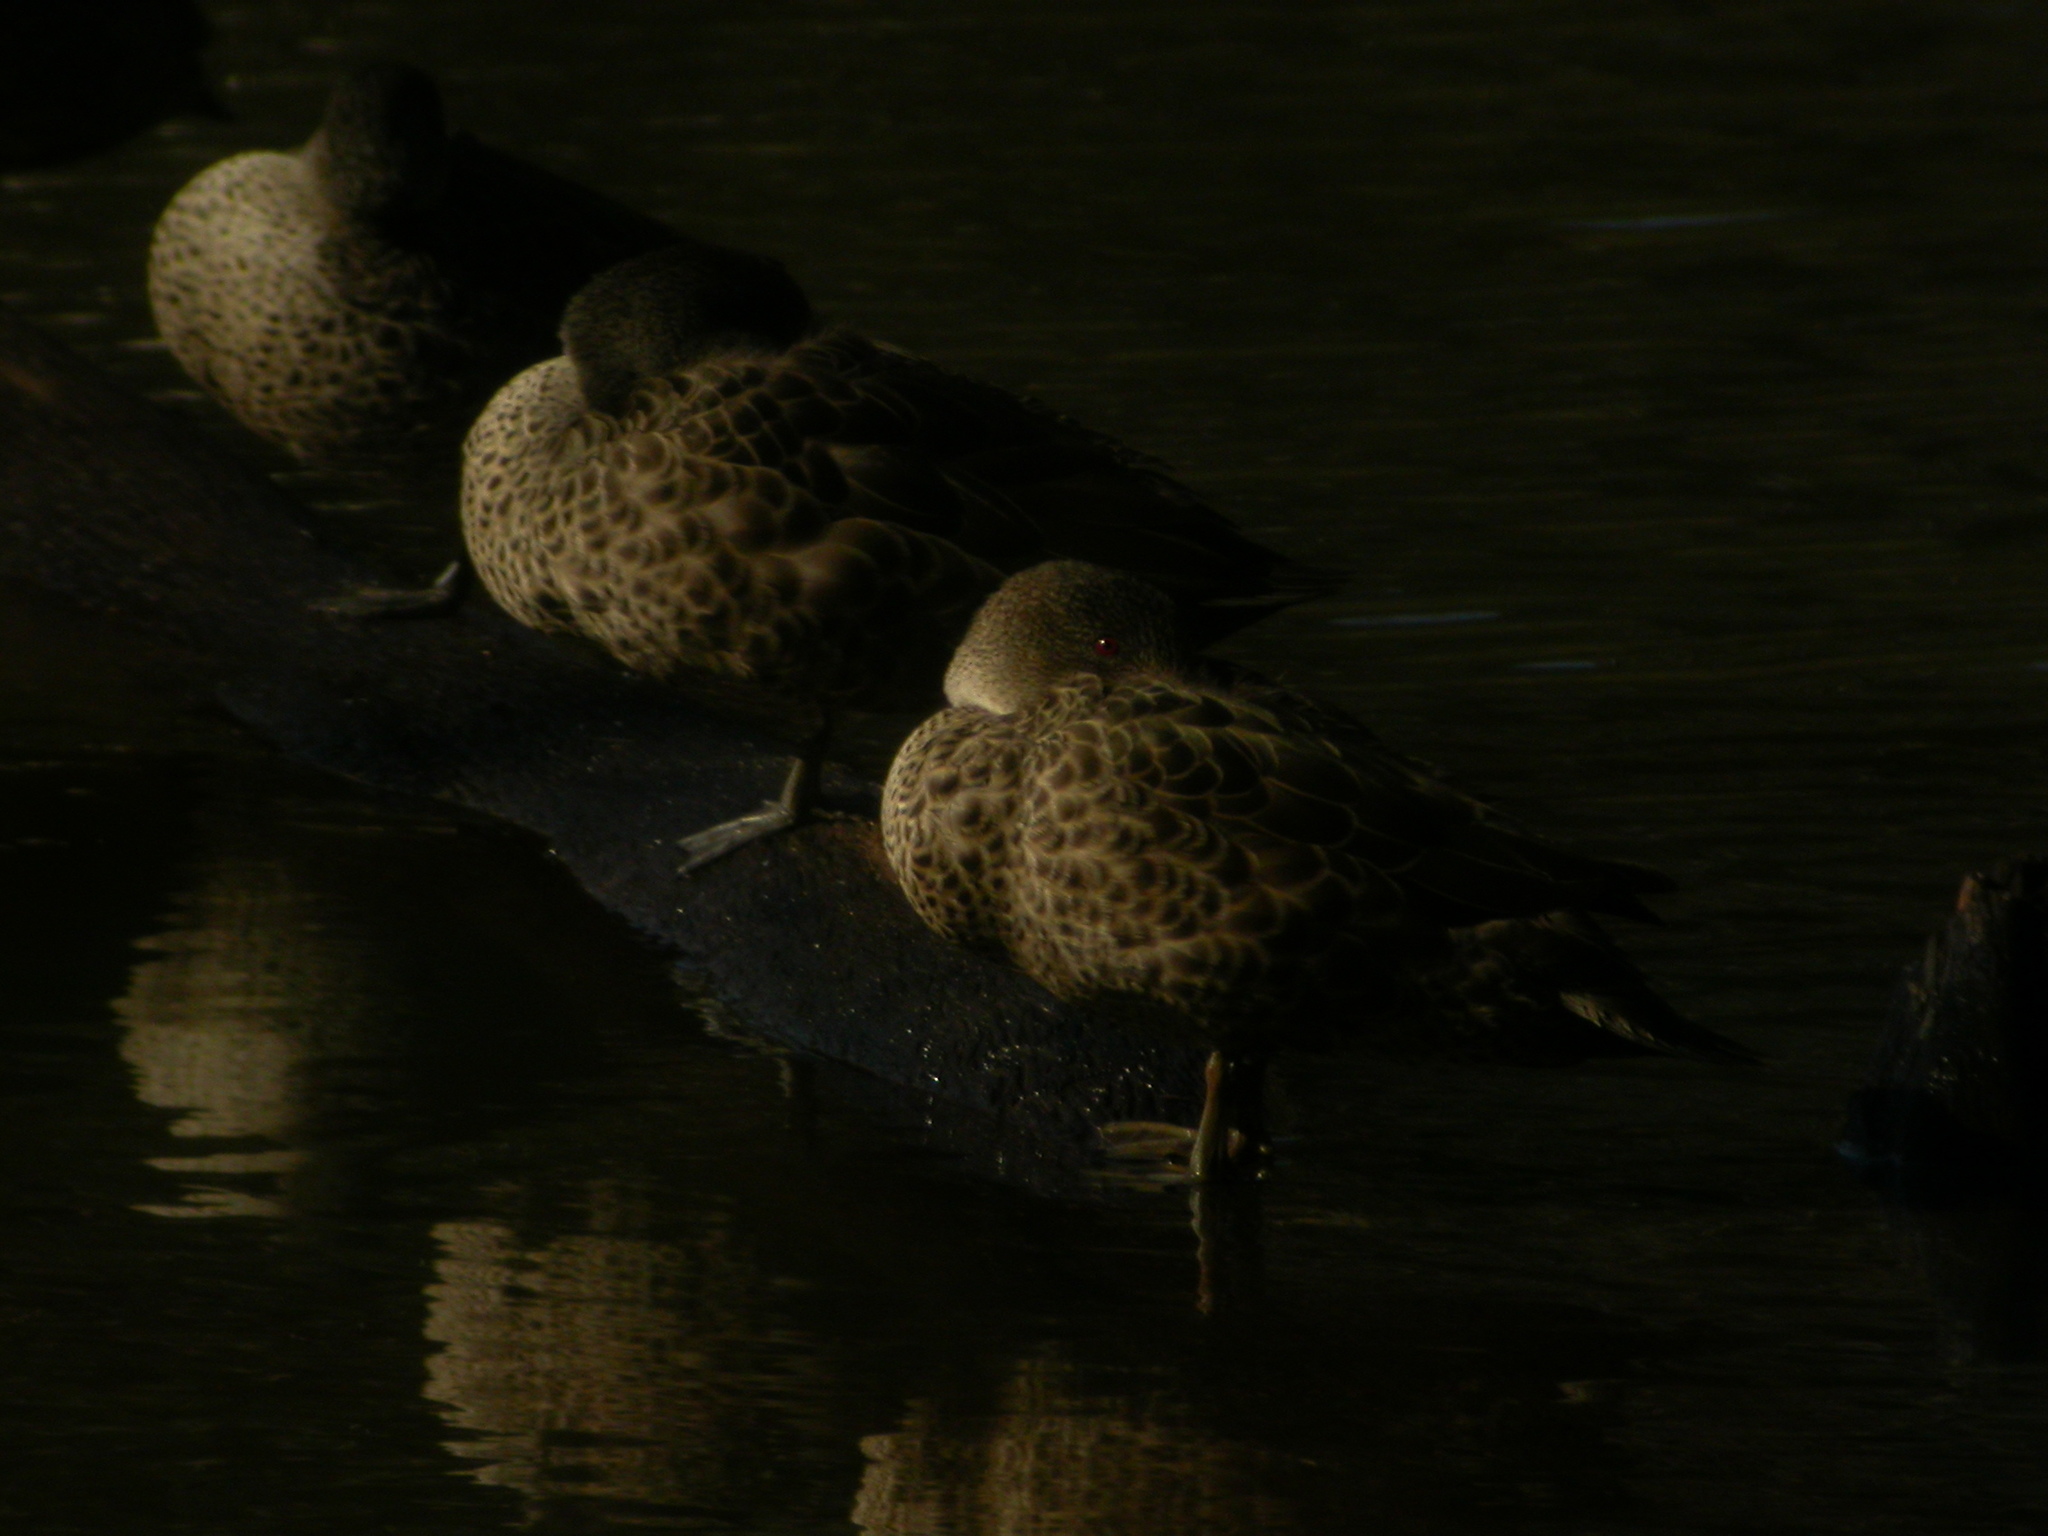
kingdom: Animalia
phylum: Chordata
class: Aves
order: Anseriformes
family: Anatidae
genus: Anas
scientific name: Anas gracilis
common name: Grey teal
